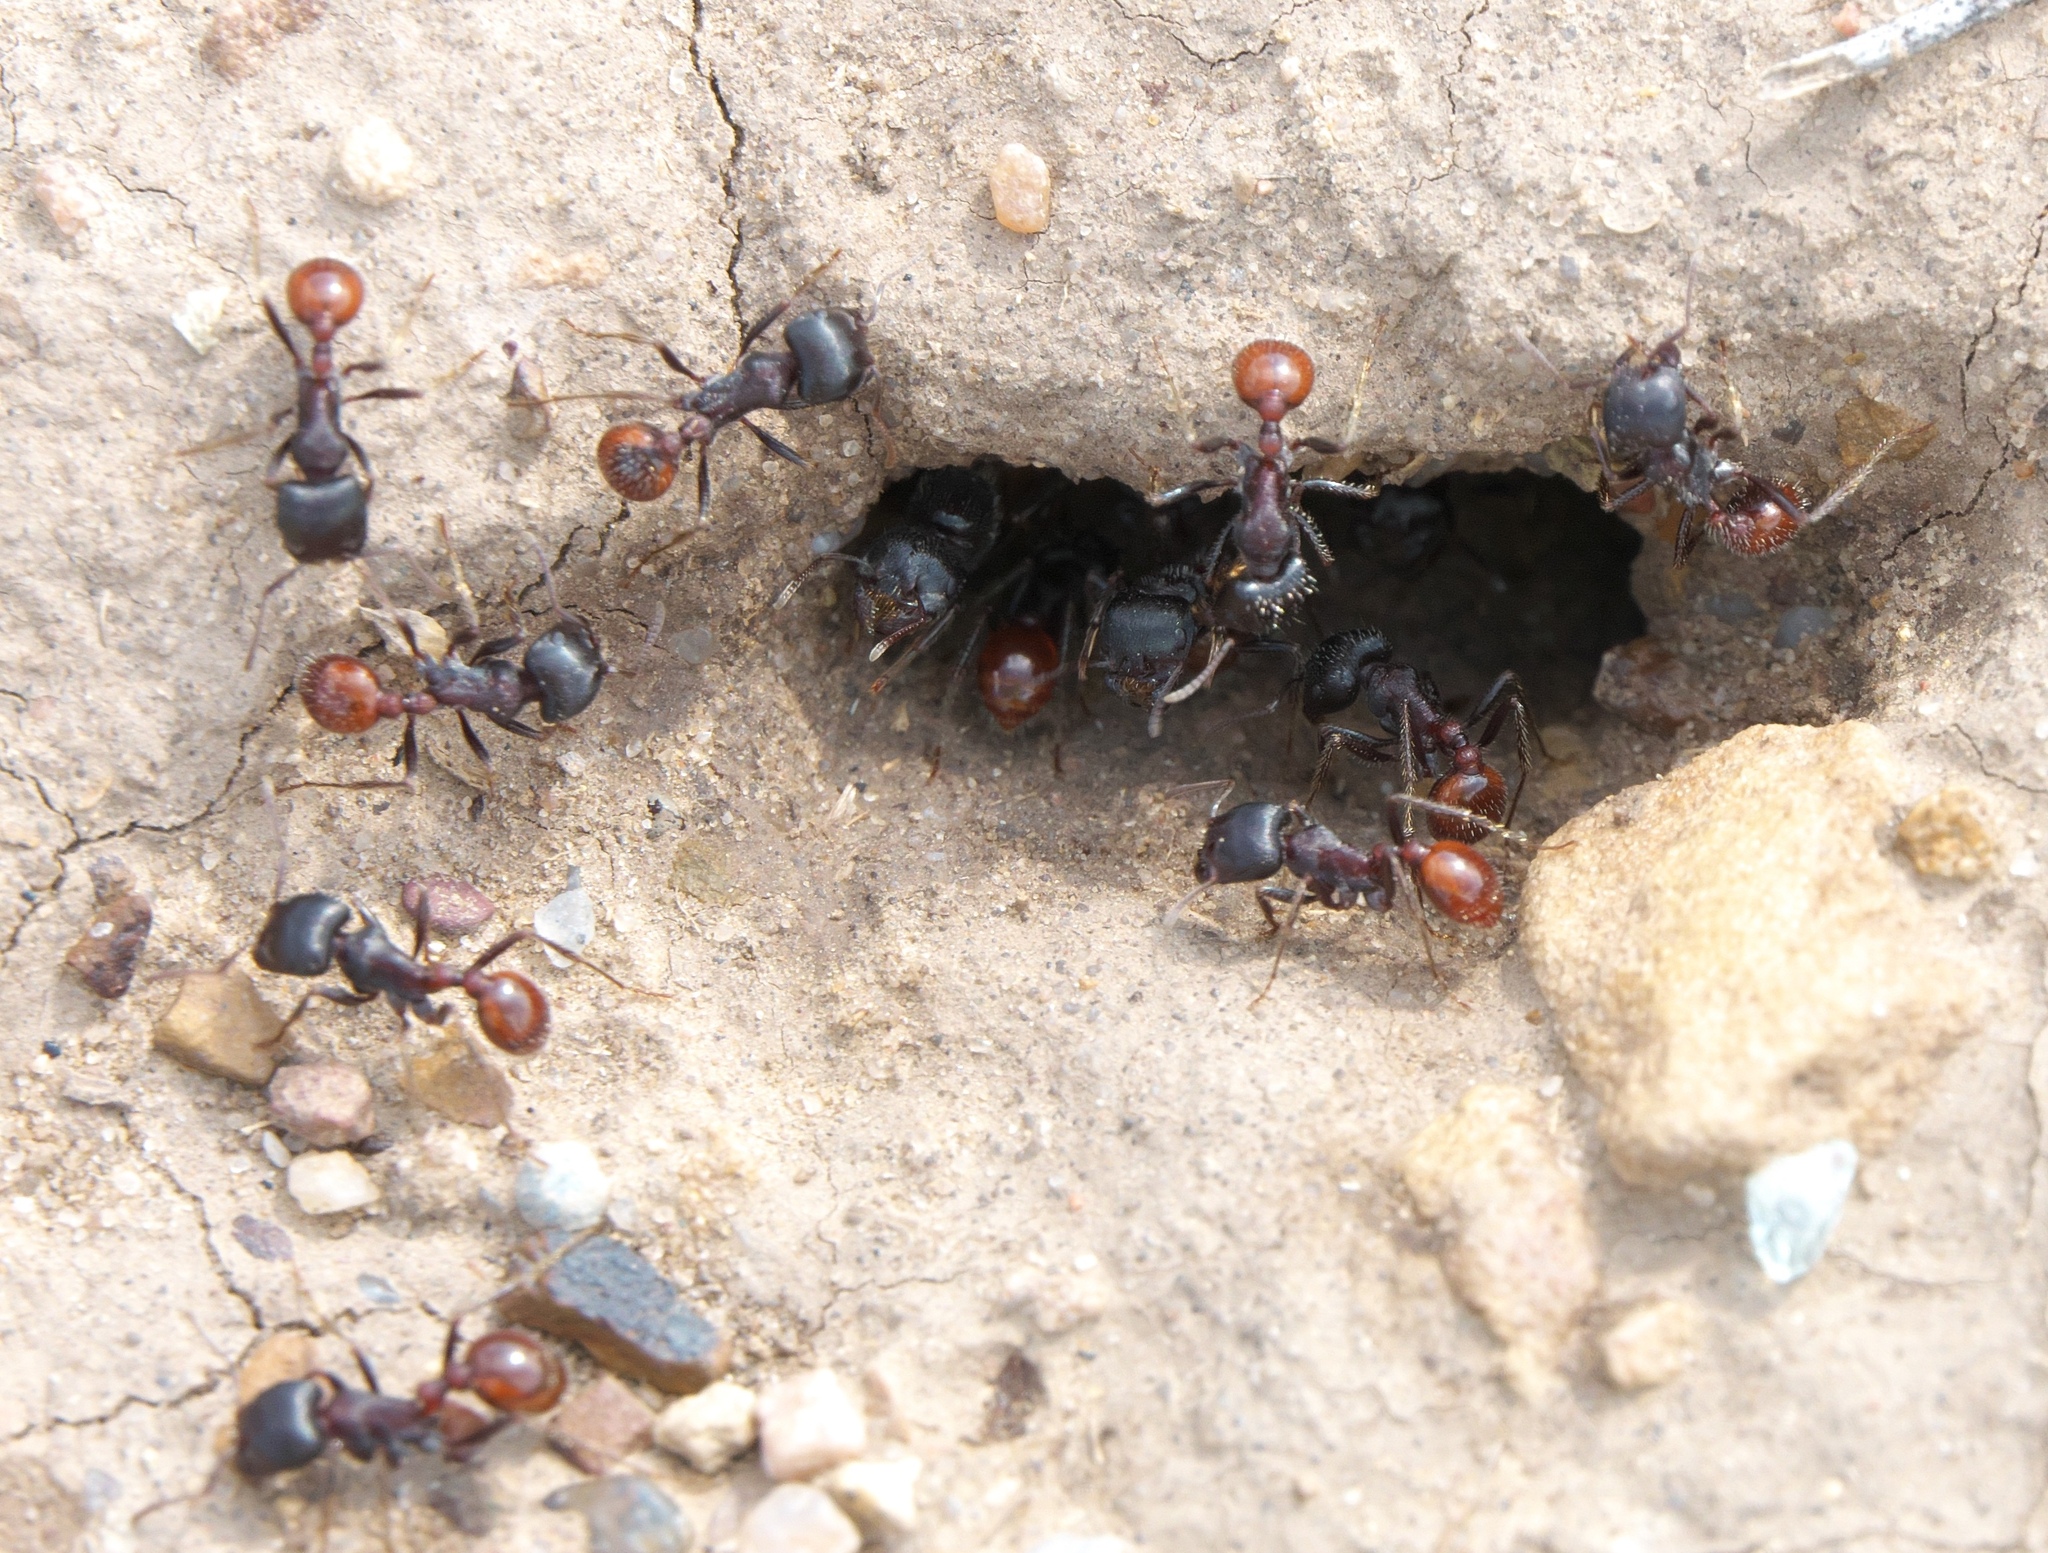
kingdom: Animalia
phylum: Arthropoda
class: Insecta
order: Hymenoptera
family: Formicidae
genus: Pogonomyrmex
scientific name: Pogonomyrmex rugosus
